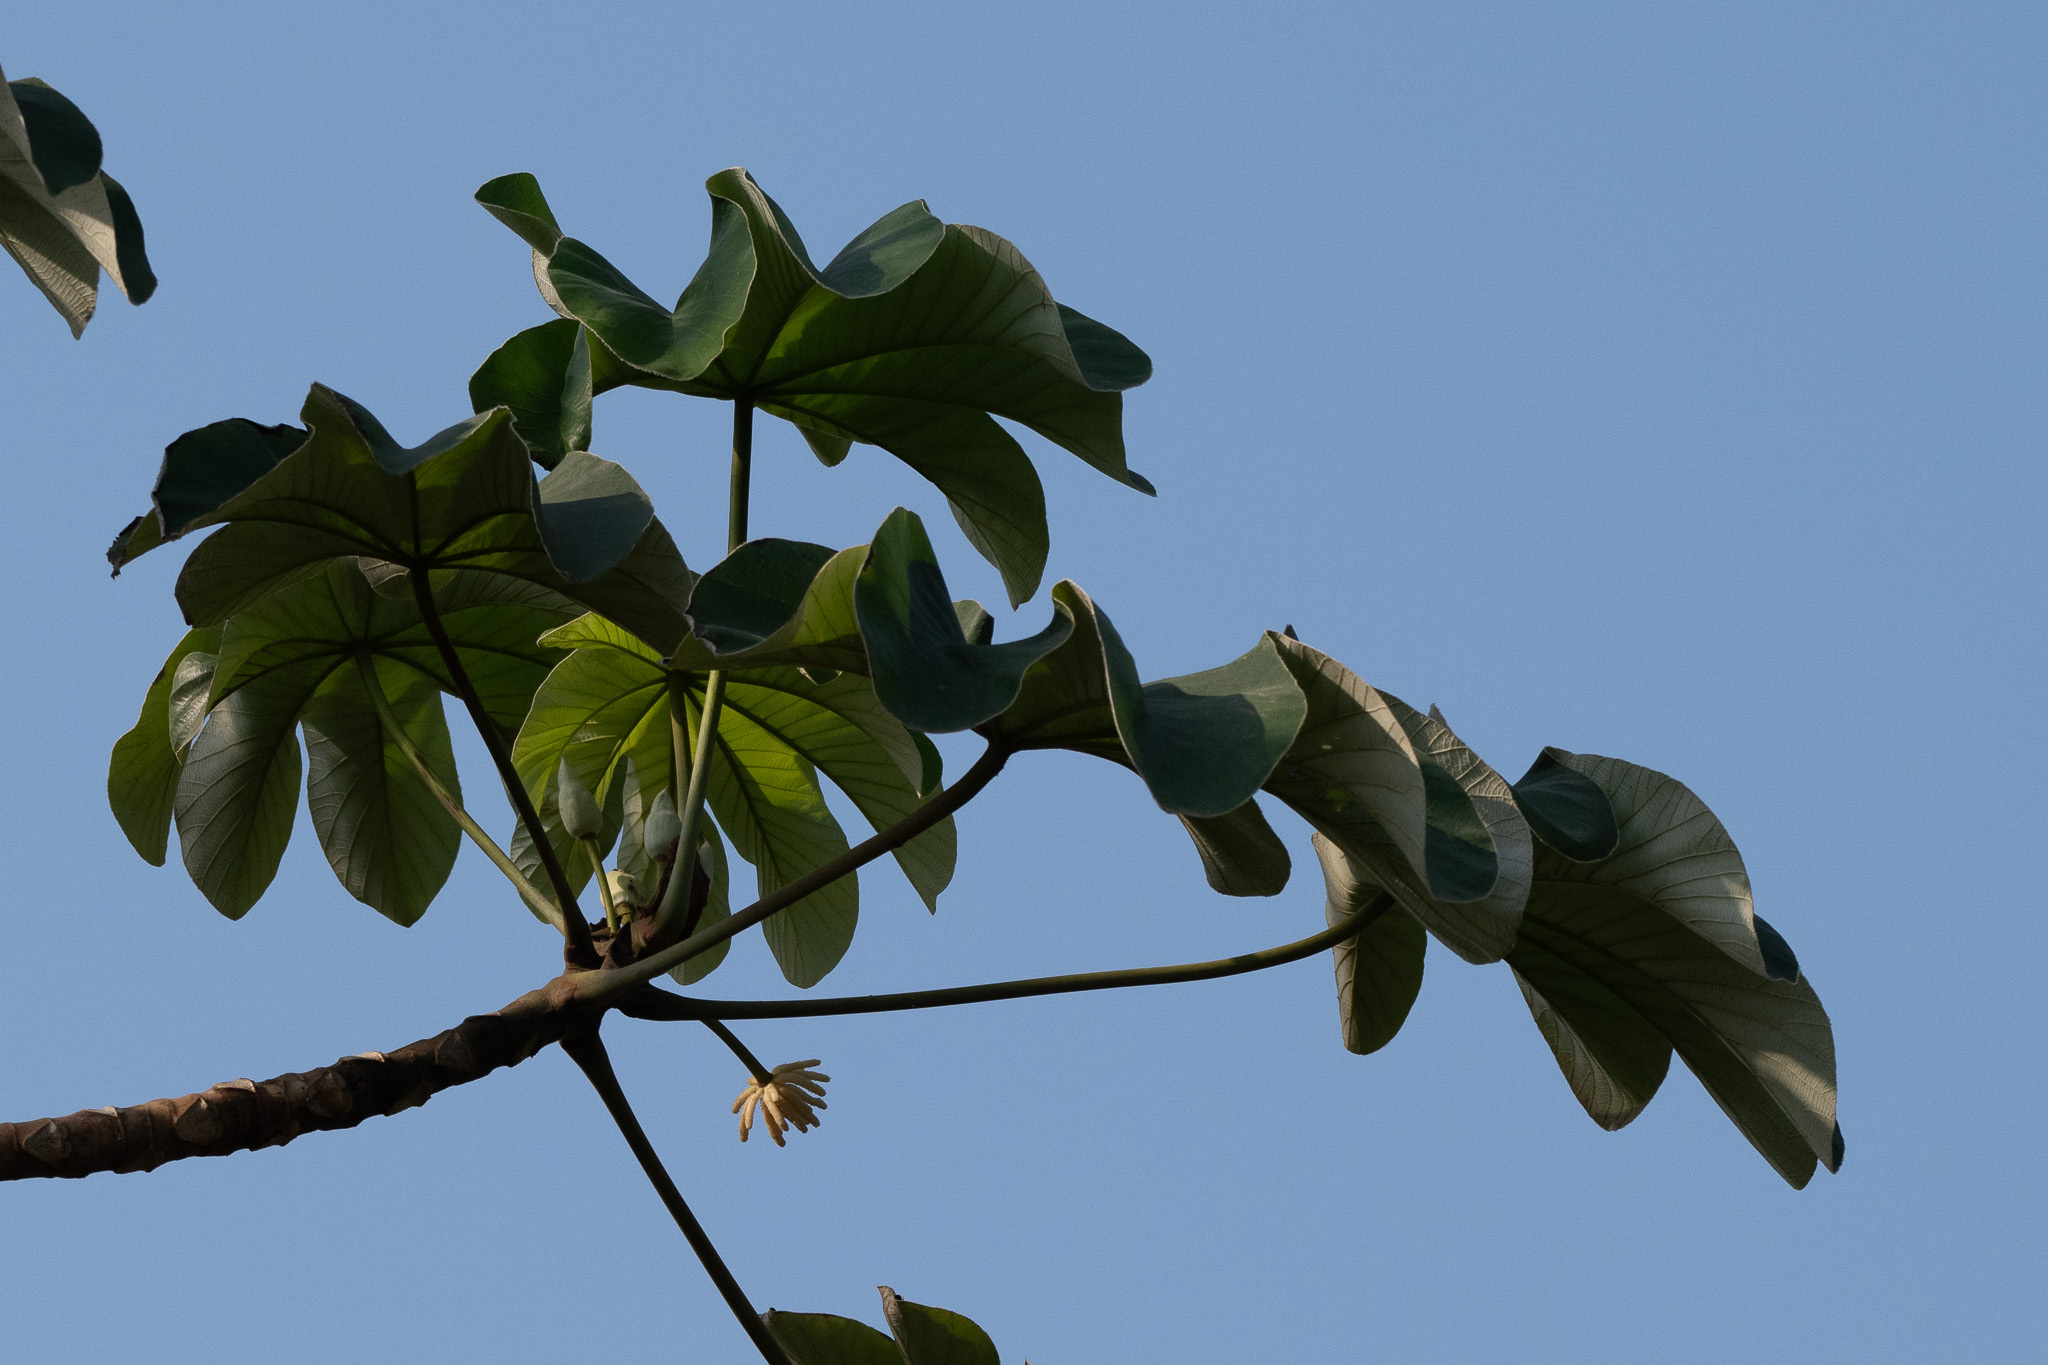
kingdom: Plantae
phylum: Tracheophyta
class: Magnoliopsida
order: Rosales
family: Urticaceae
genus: Cecropia
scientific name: Cecropia peltata
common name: Trumpet-tree
